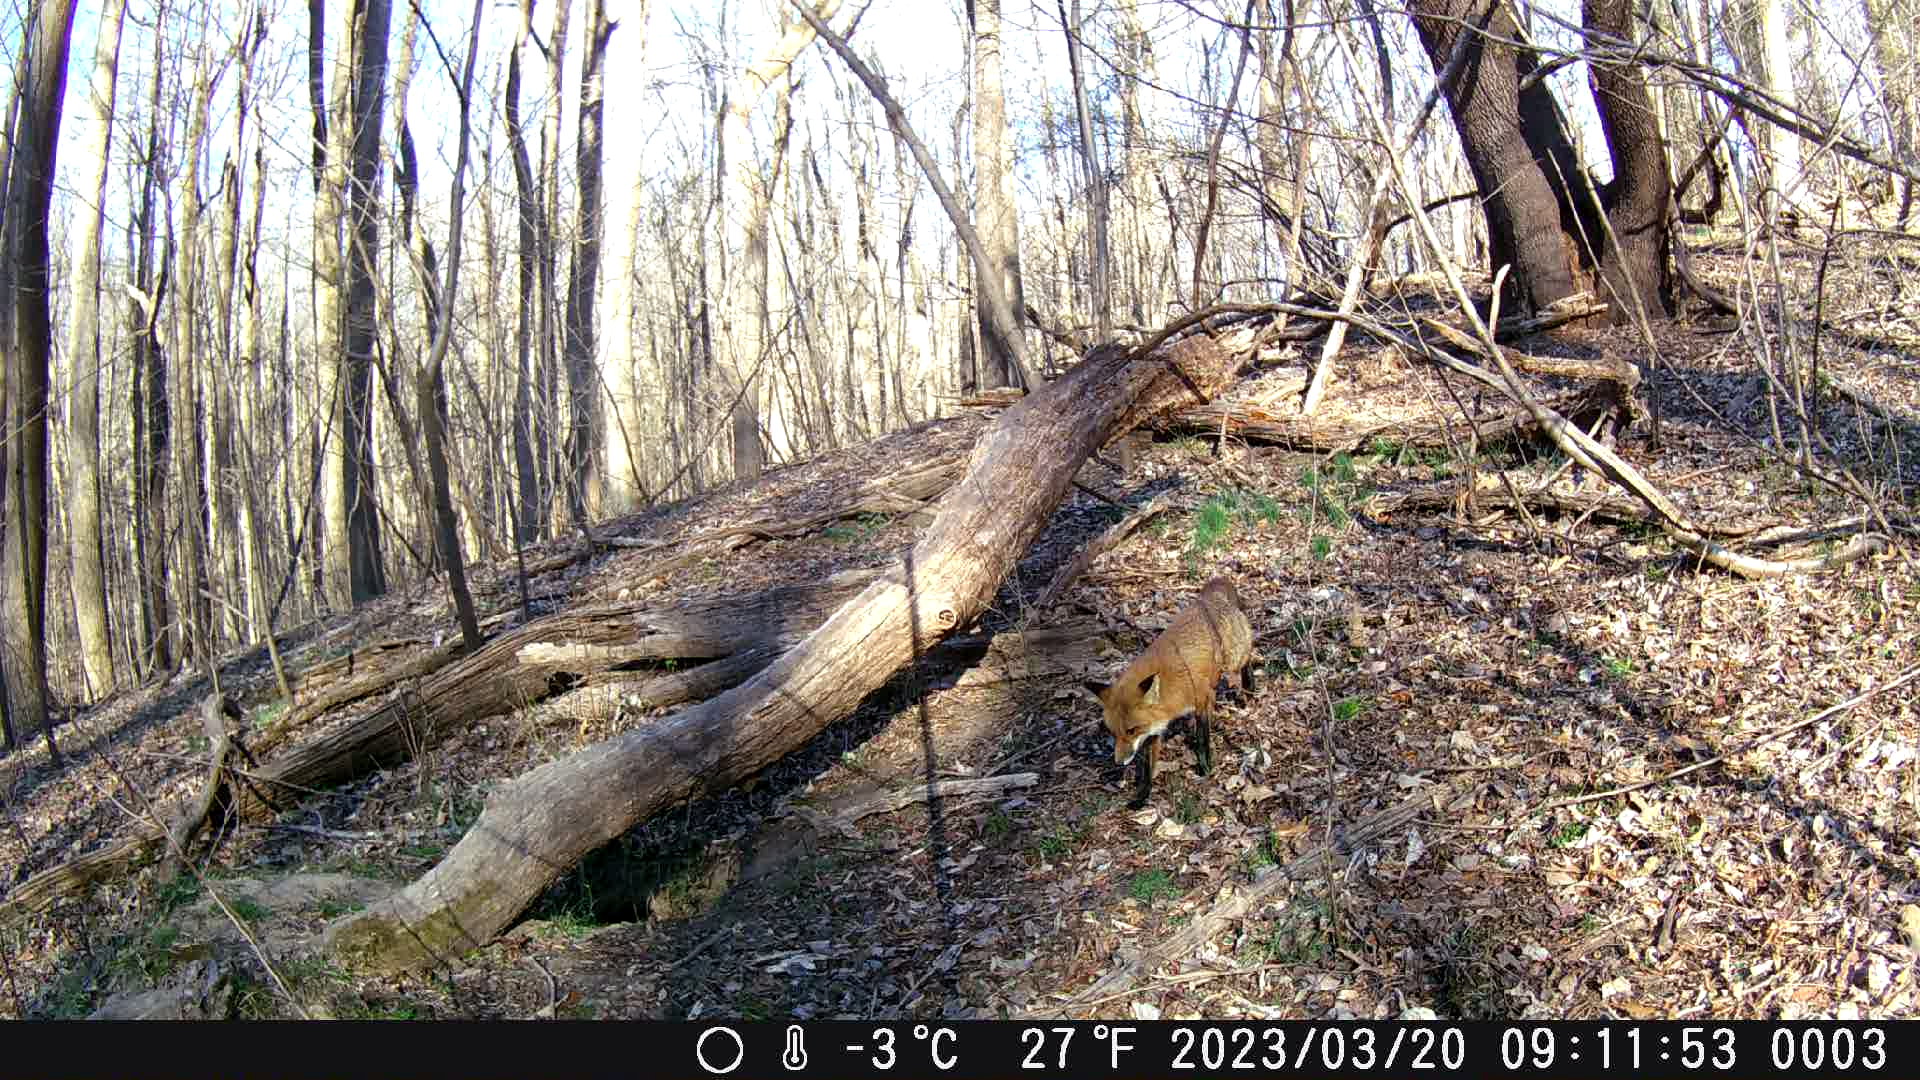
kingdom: Animalia
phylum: Chordata
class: Mammalia
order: Carnivora
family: Canidae
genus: Vulpes
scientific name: Vulpes vulpes
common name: Red fox
